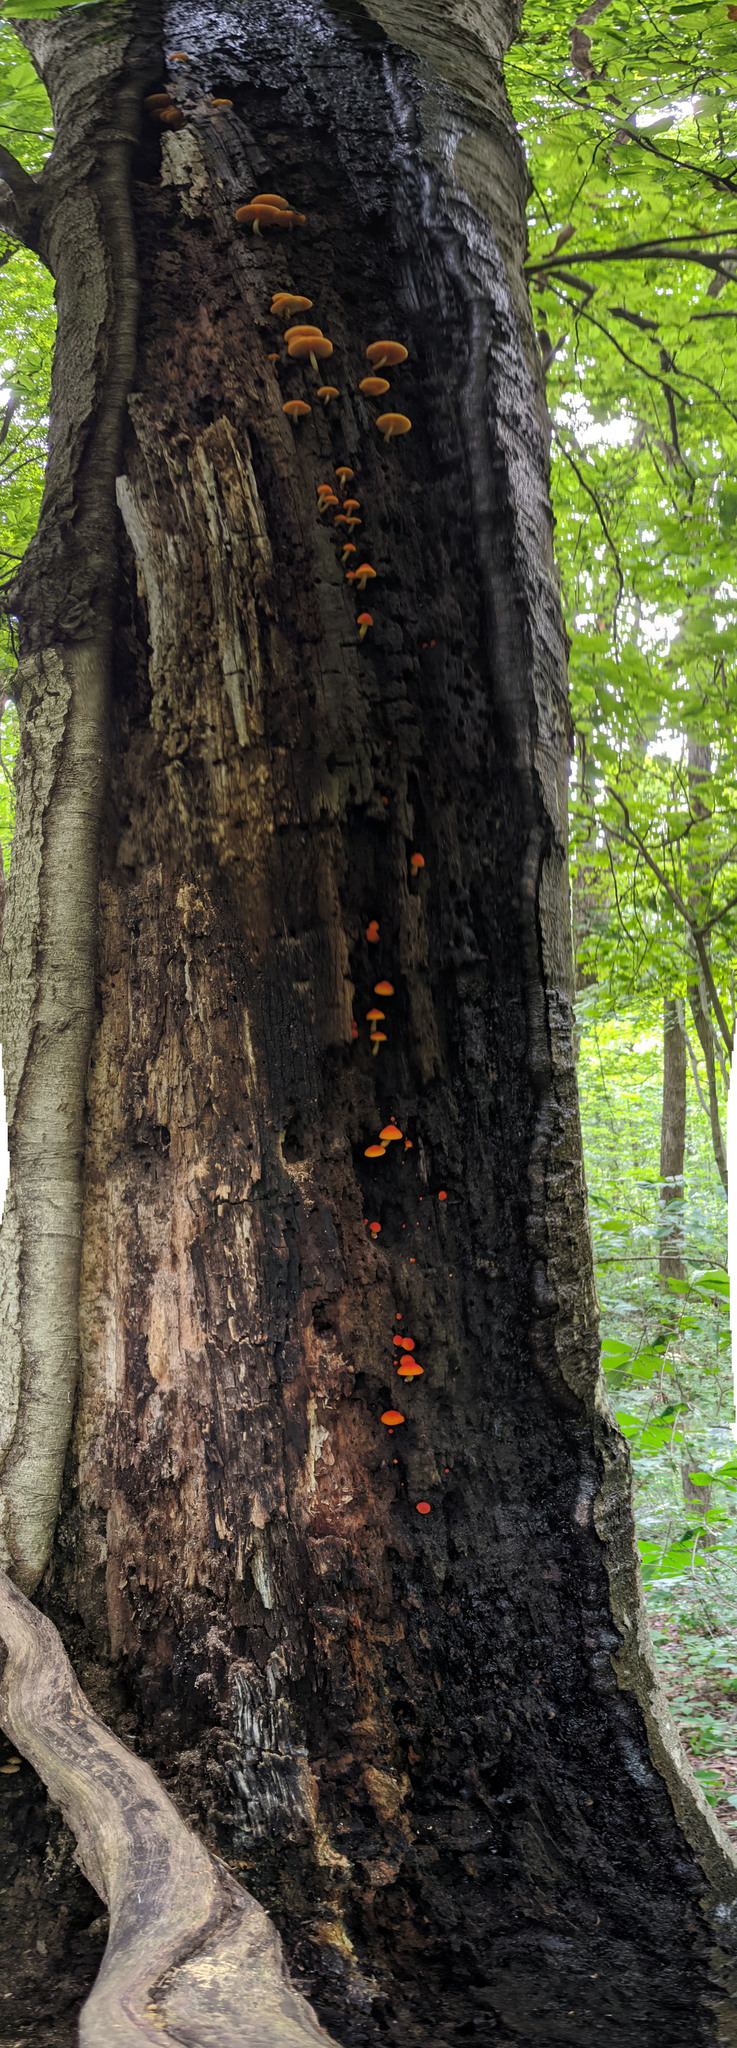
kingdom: Fungi
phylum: Basidiomycota
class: Agaricomycetes
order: Agaricales
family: Pluteaceae
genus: Pluteus
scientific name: Pluteus aurantiorugosus
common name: Flame shield
